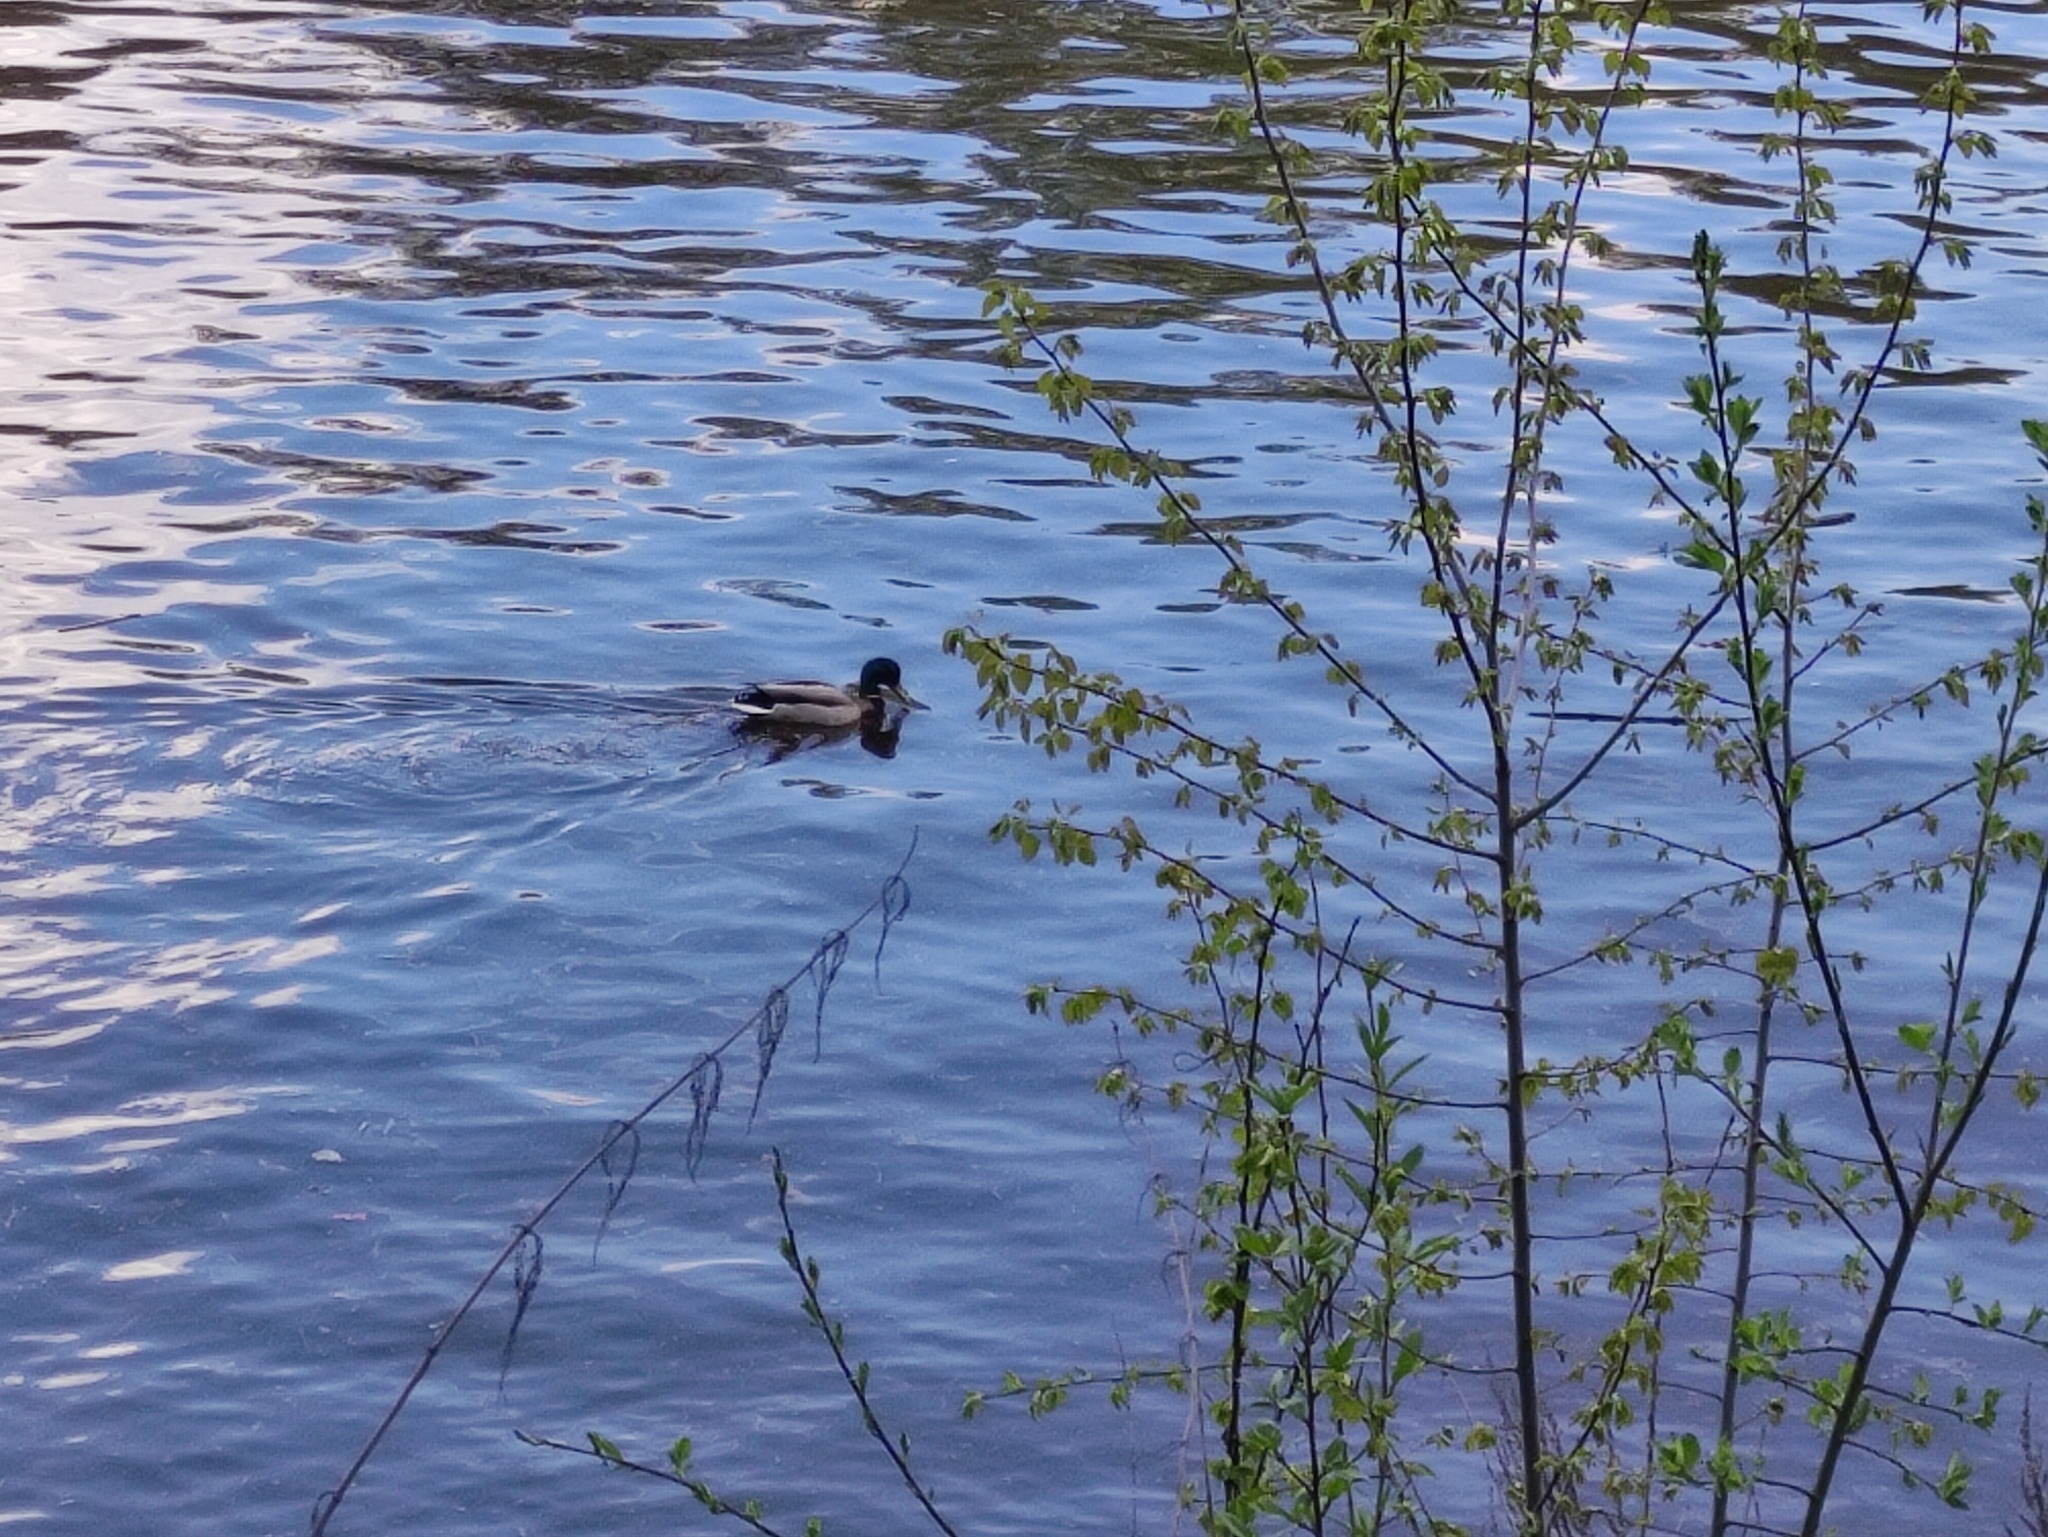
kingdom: Animalia
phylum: Chordata
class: Aves
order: Anseriformes
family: Anatidae
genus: Anas
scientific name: Anas platyrhynchos
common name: Mallard
